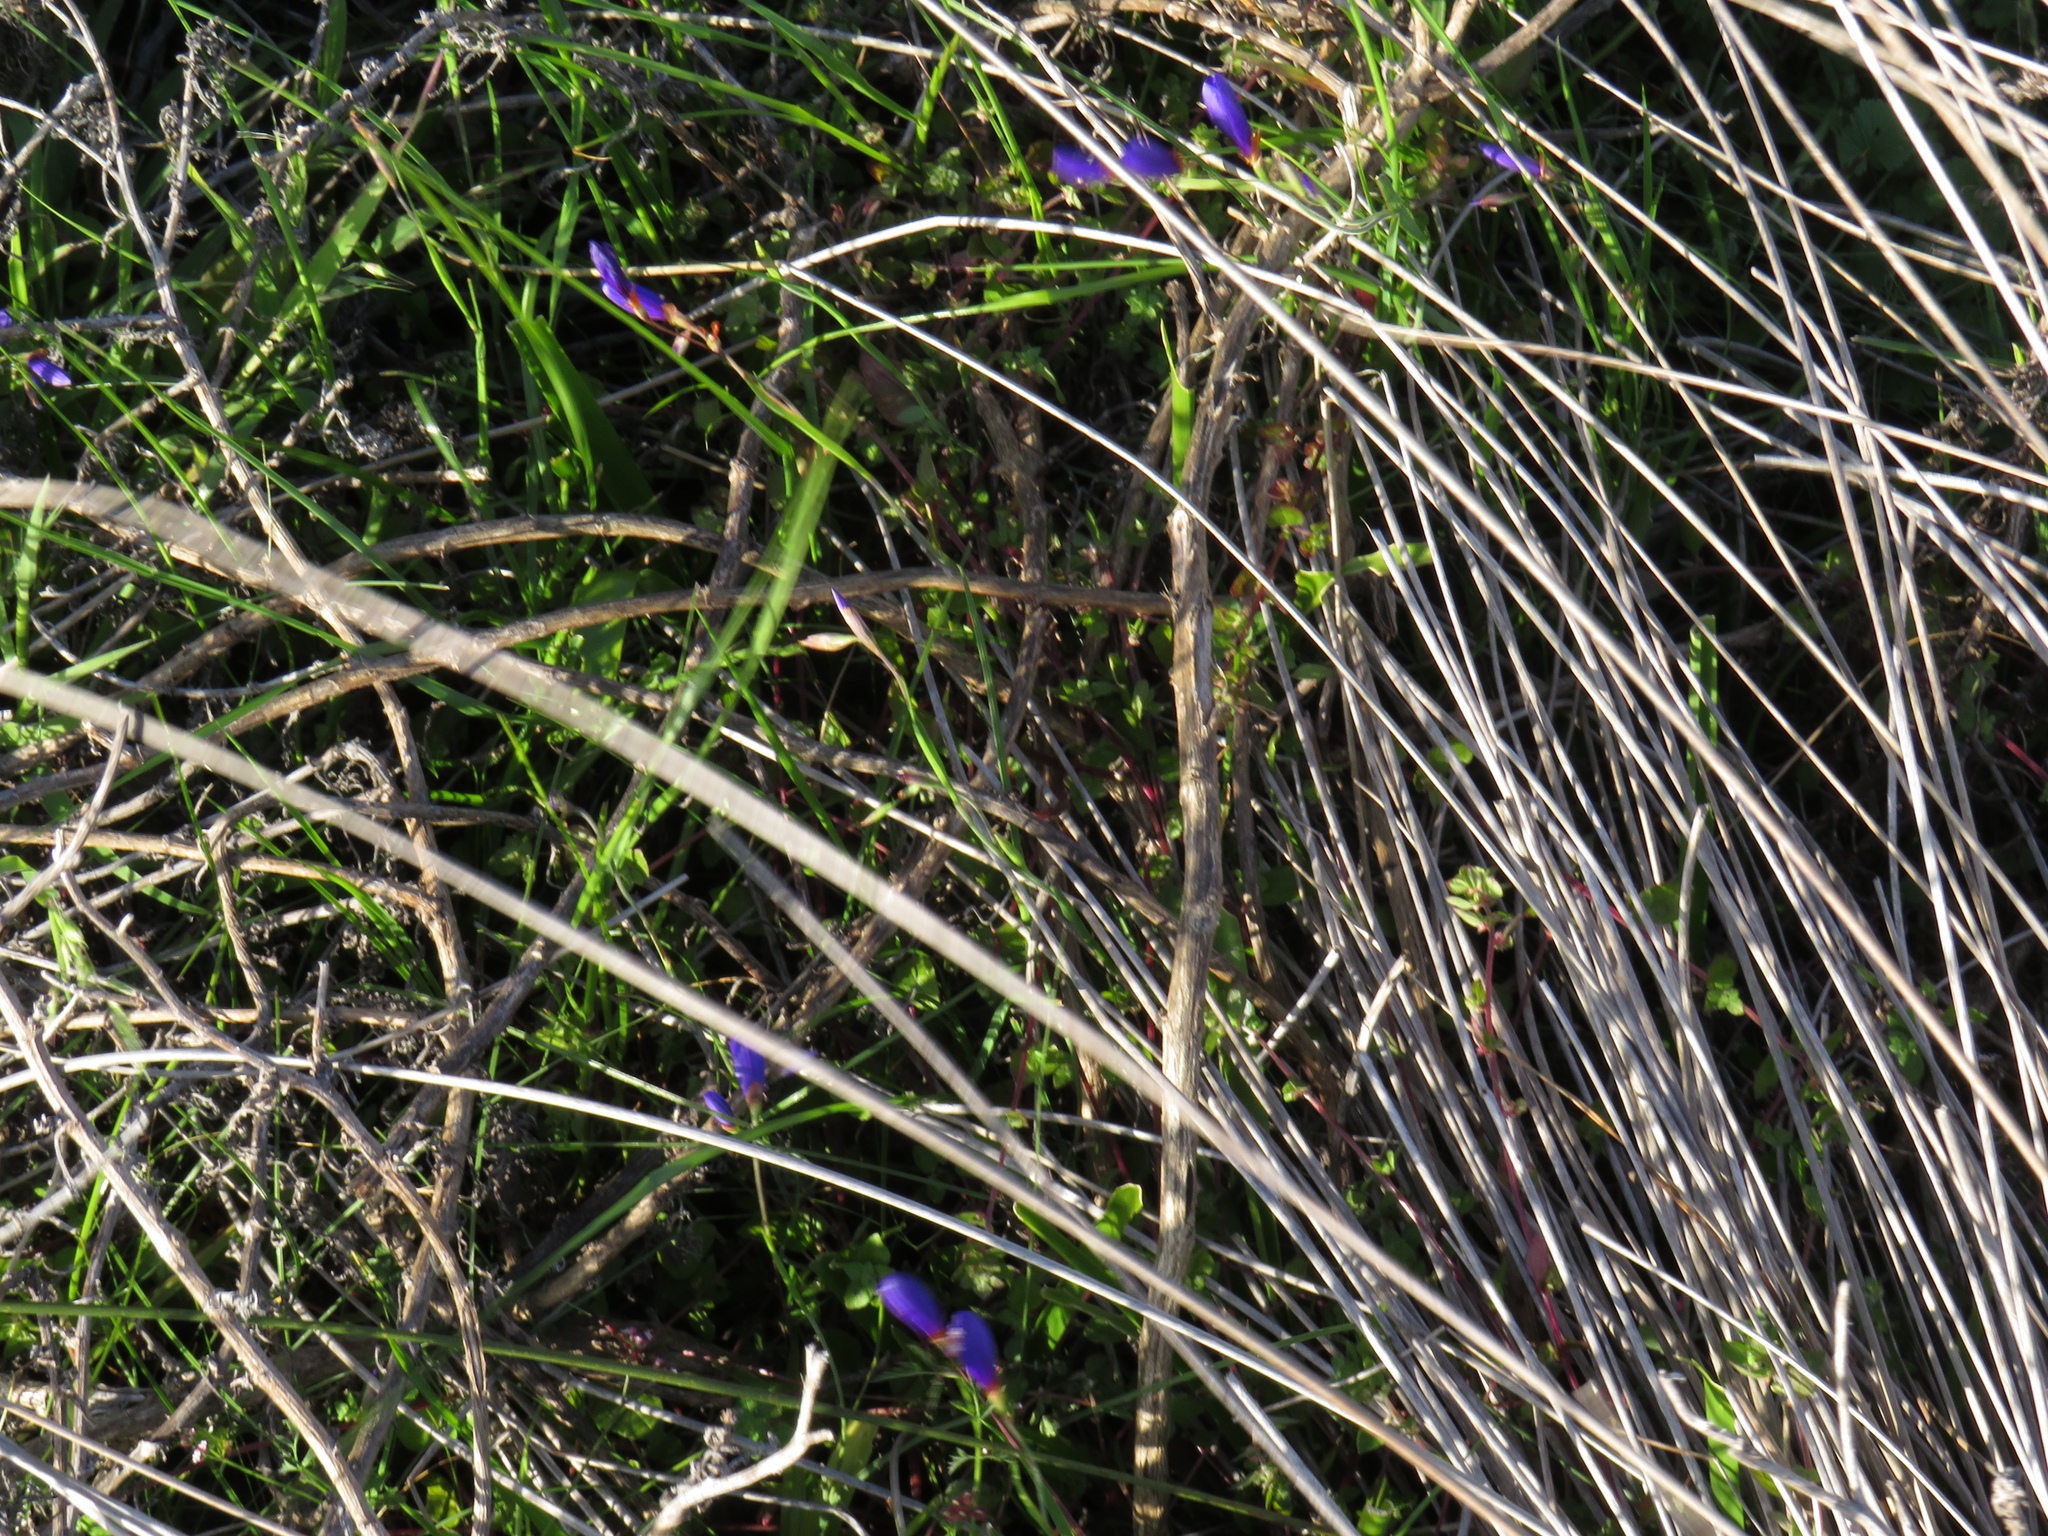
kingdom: Plantae
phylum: Tracheophyta
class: Liliopsida
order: Asparagales
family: Iridaceae
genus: Geissorhiza
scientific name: Geissorhiza lewisiae
